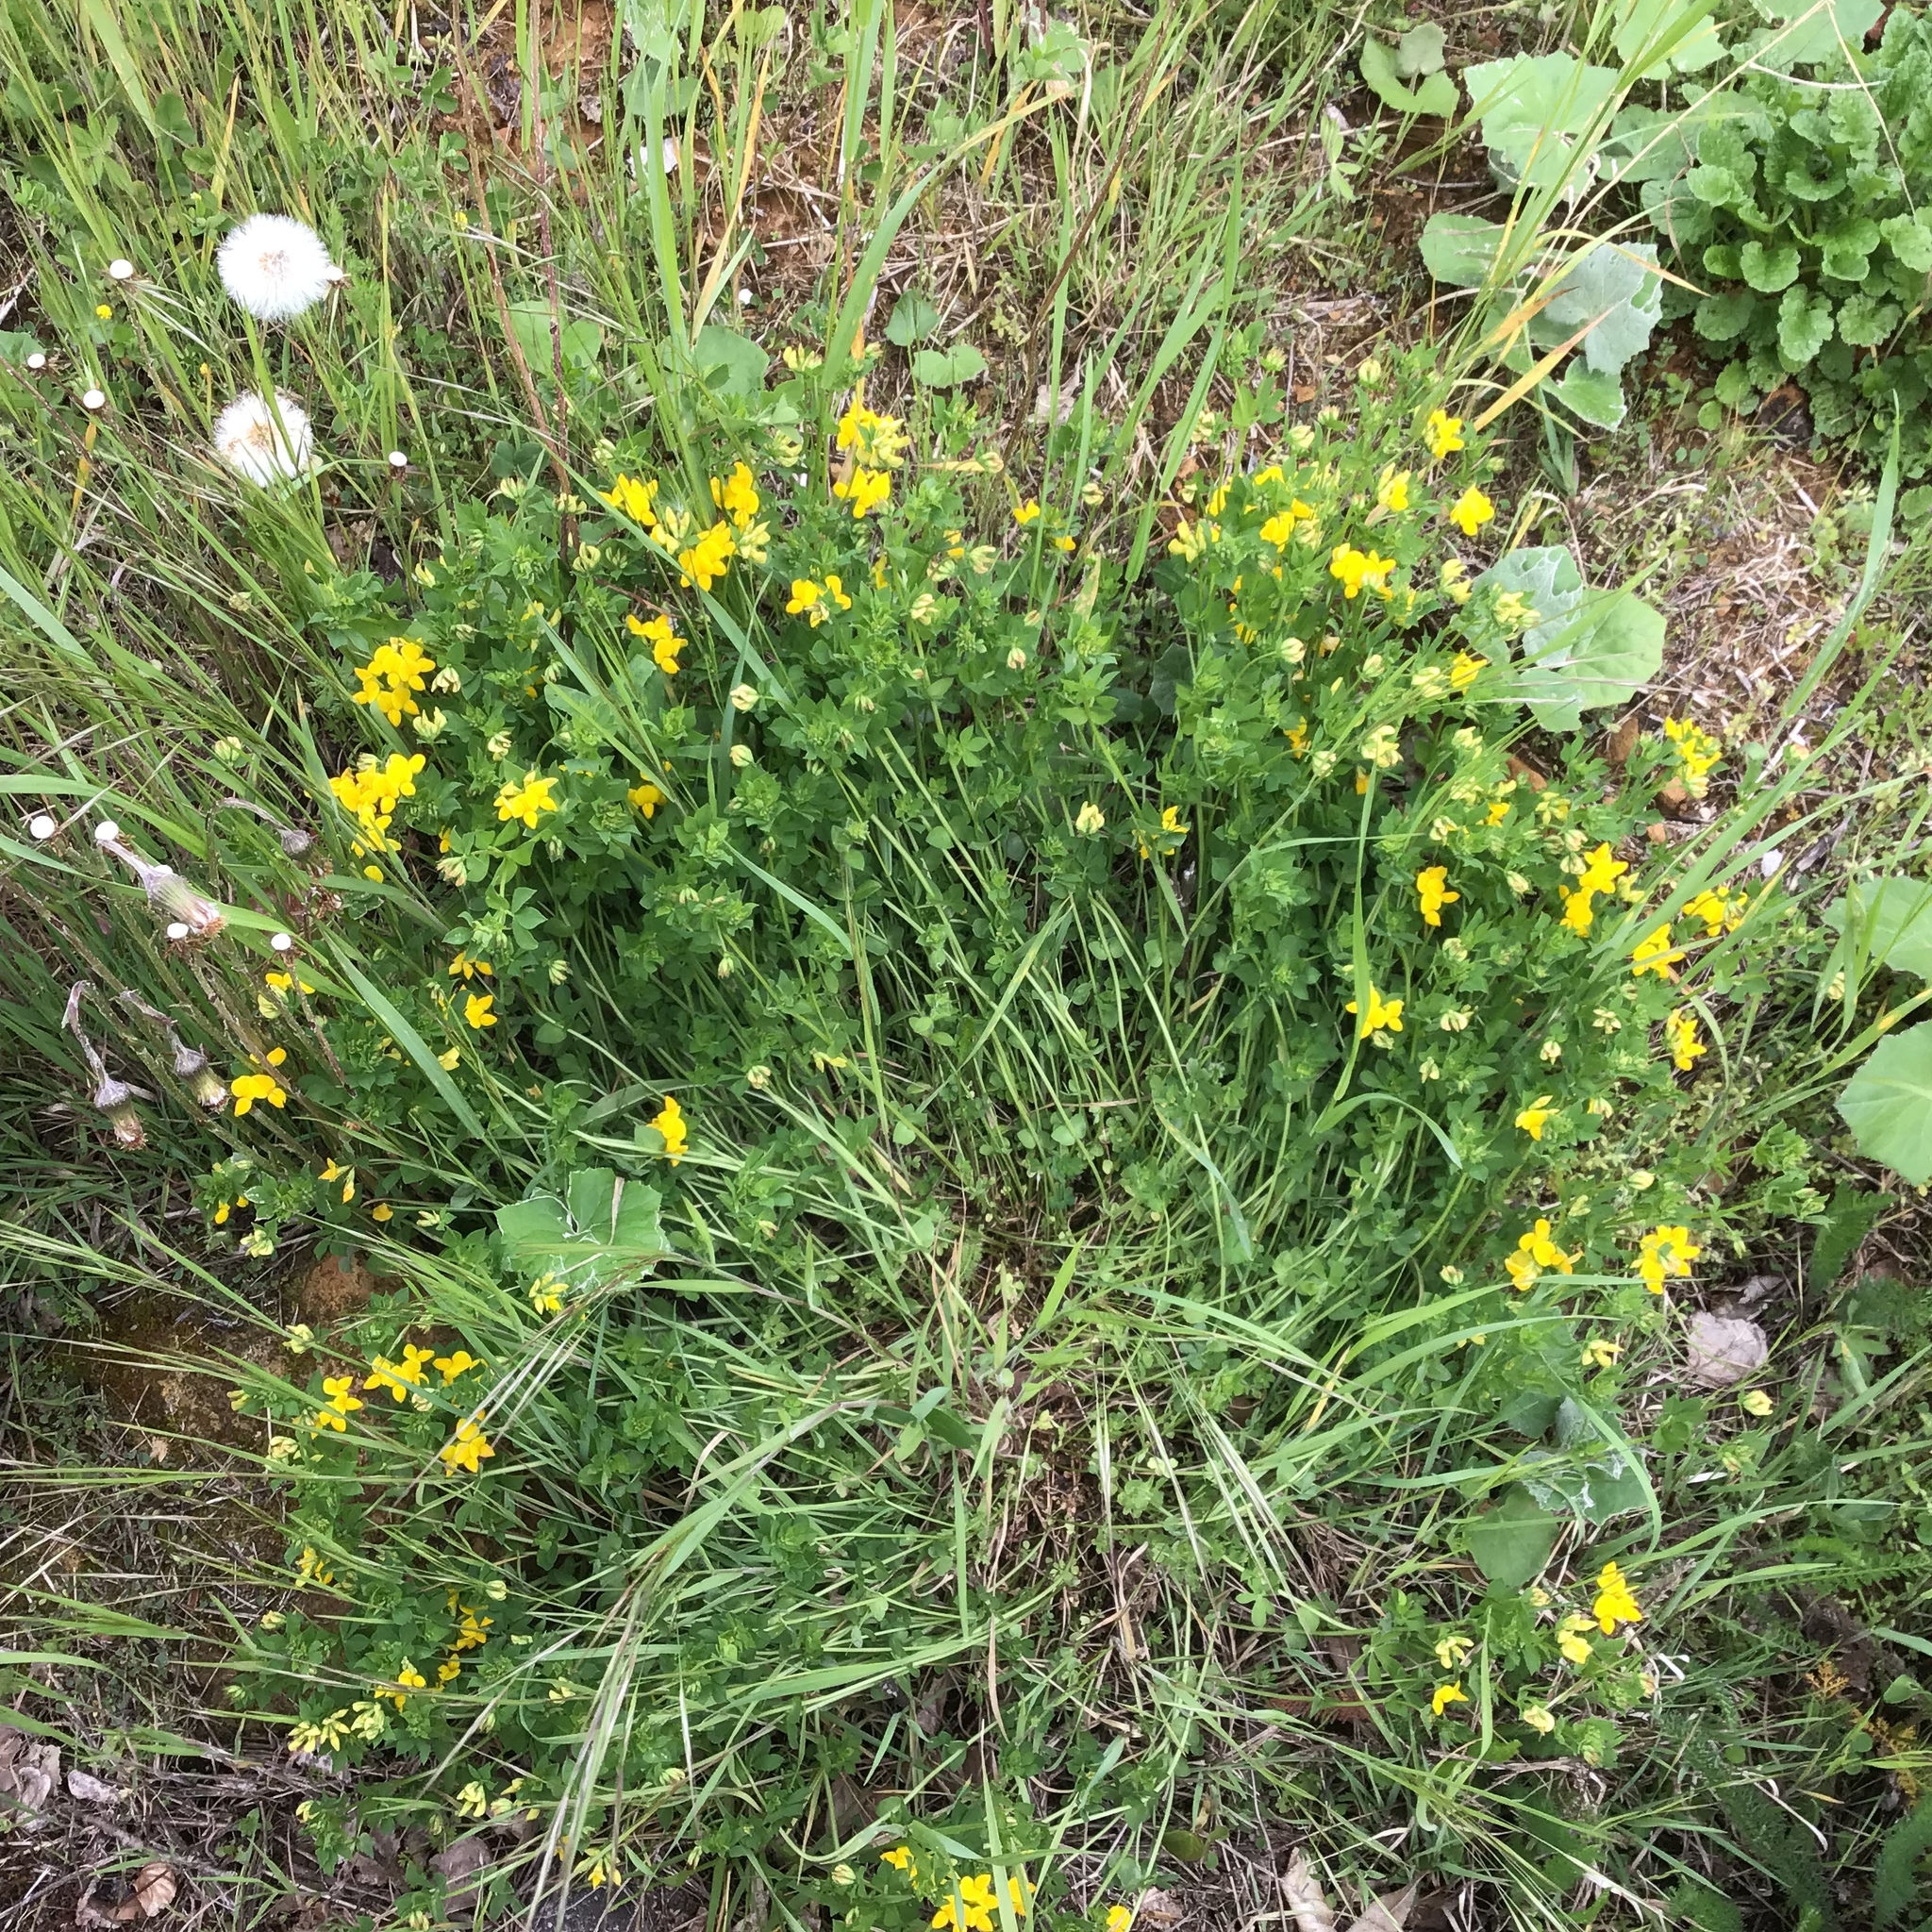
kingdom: Plantae
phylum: Tracheophyta
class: Magnoliopsida
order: Fabales
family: Fabaceae
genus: Lotus
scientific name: Lotus corniculatus
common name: Common bird's-foot-trefoil
